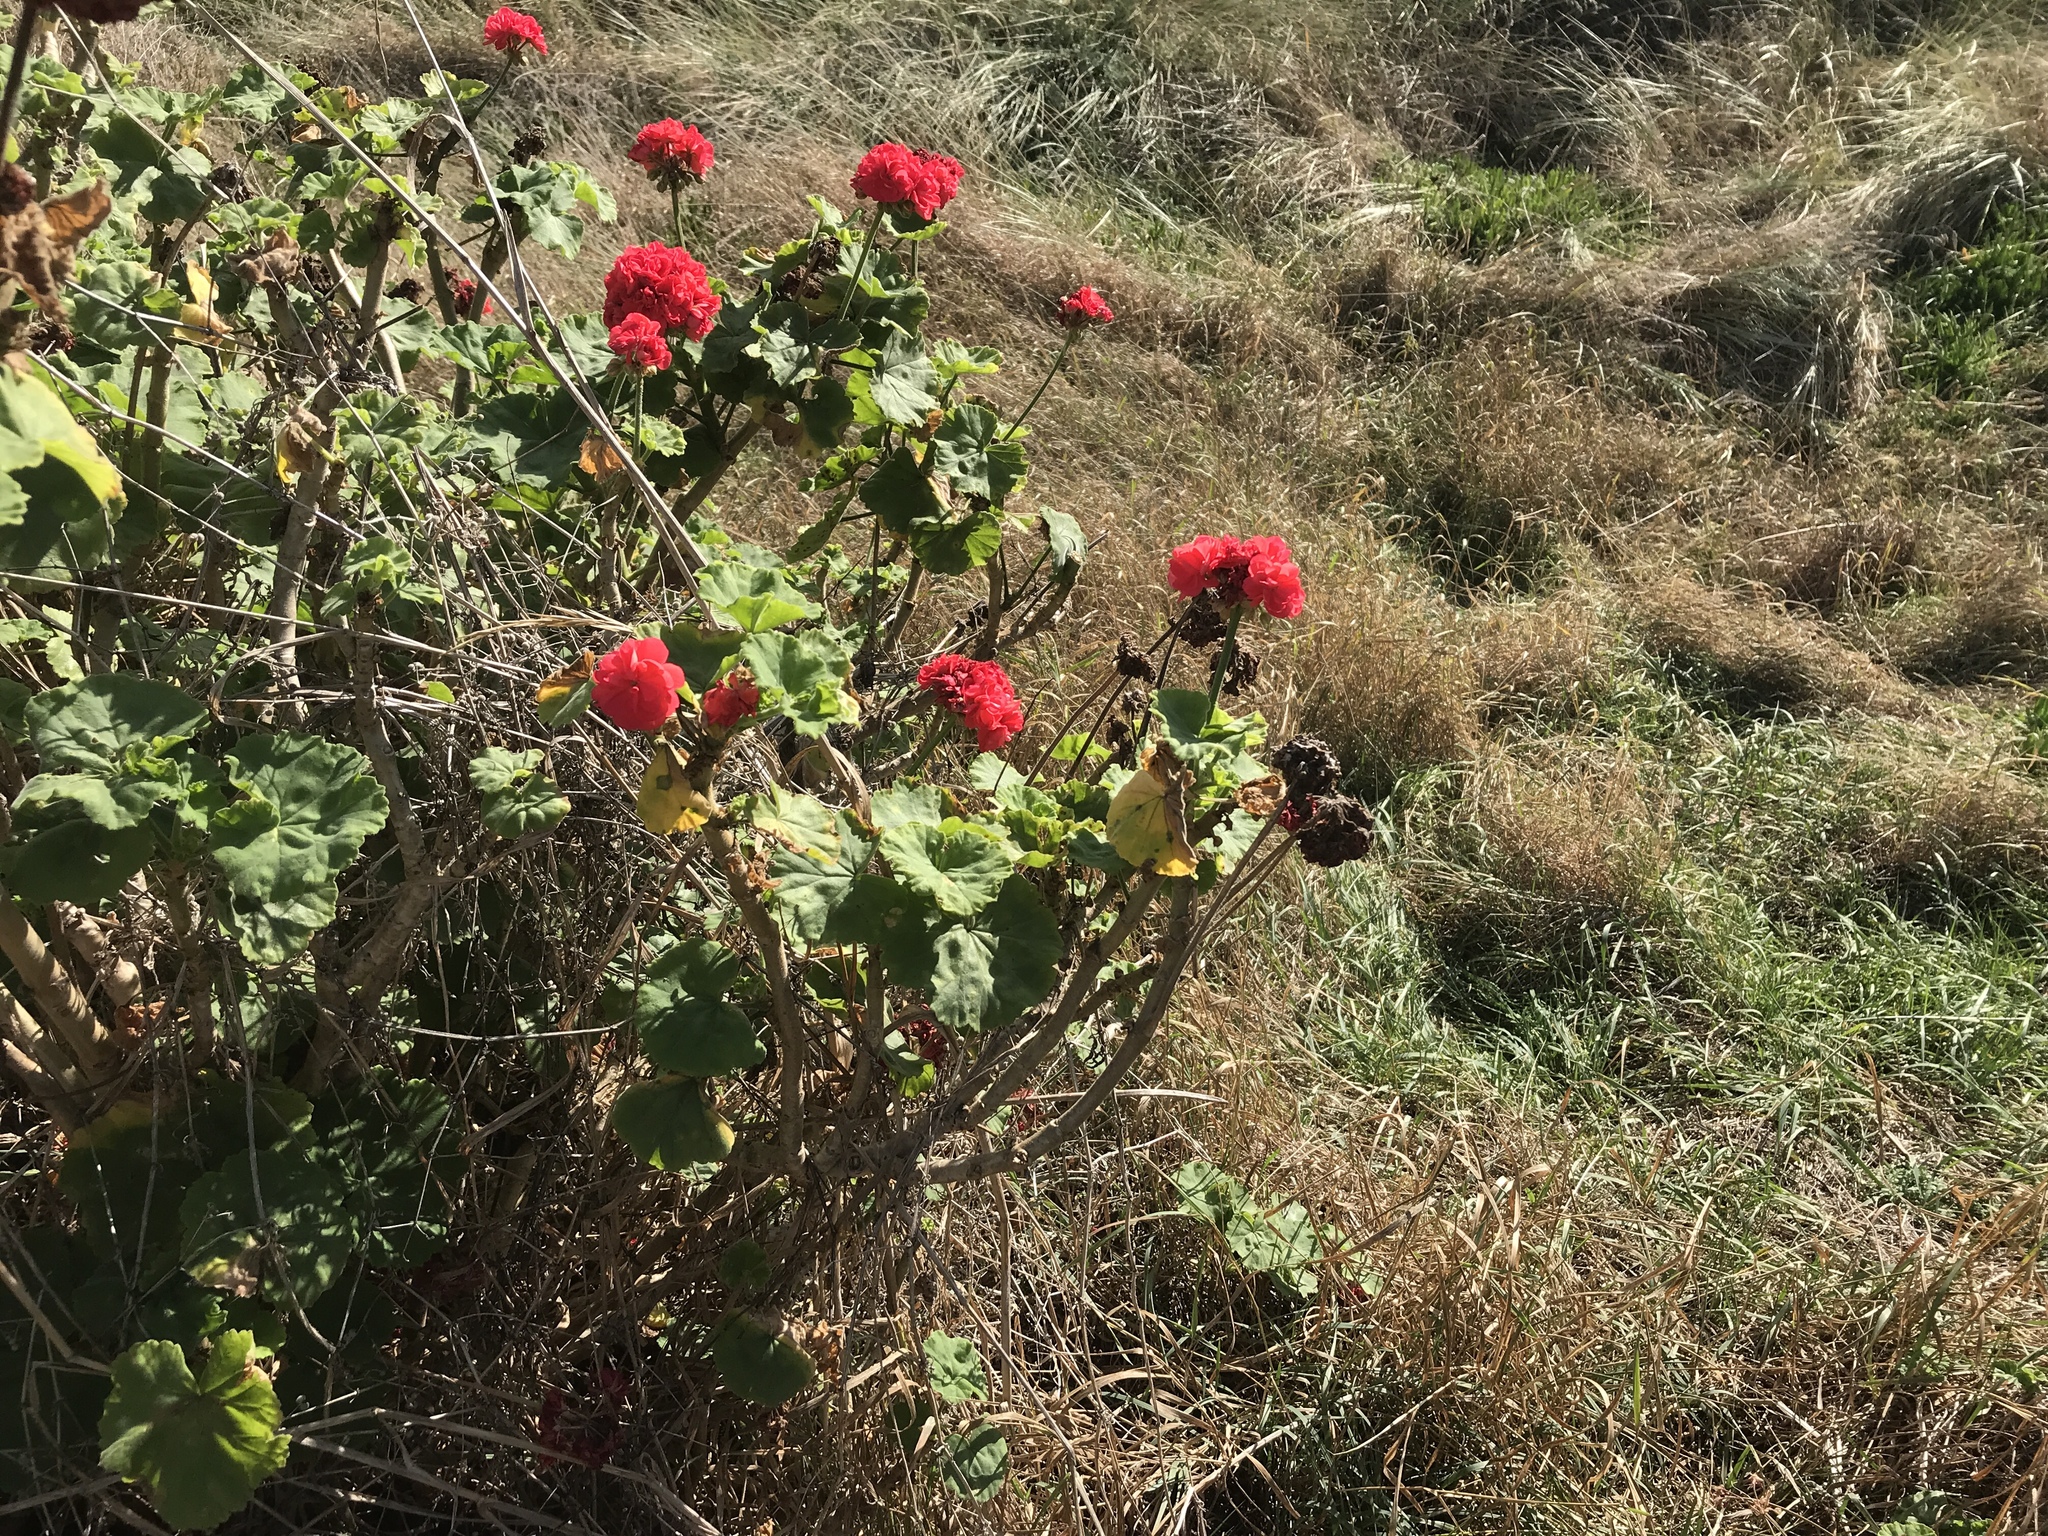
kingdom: Plantae
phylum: Tracheophyta
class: Magnoliopsida
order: Geraniales
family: Geraniaceae
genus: Pelargonium
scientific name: Pelargonium hybridum
